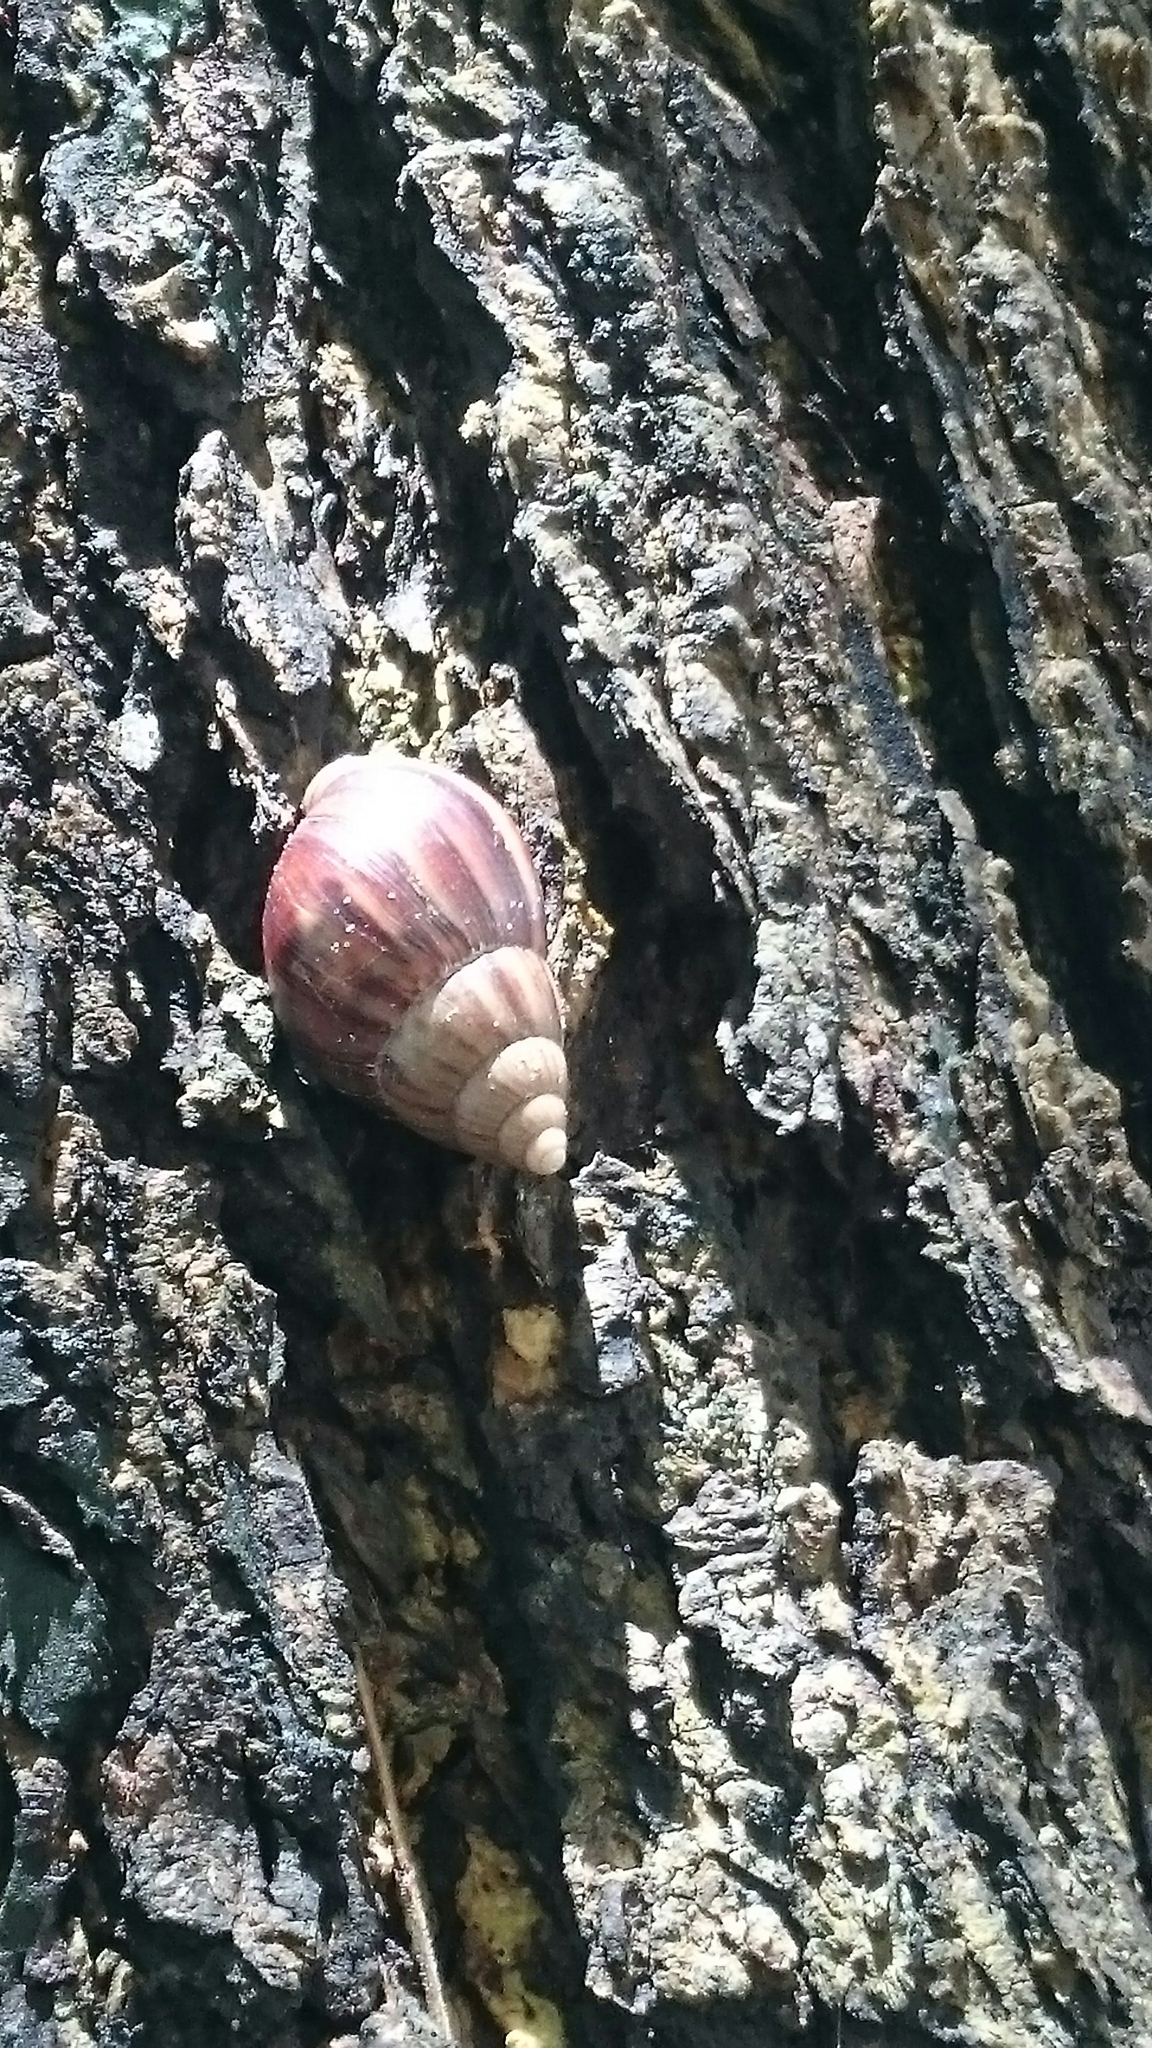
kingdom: Animalia
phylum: Mollusca
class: Gastropoda
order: Stylommatophora
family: Achatinidae
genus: Lissachatina
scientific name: Lissachatina fulica
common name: Giant african snail
